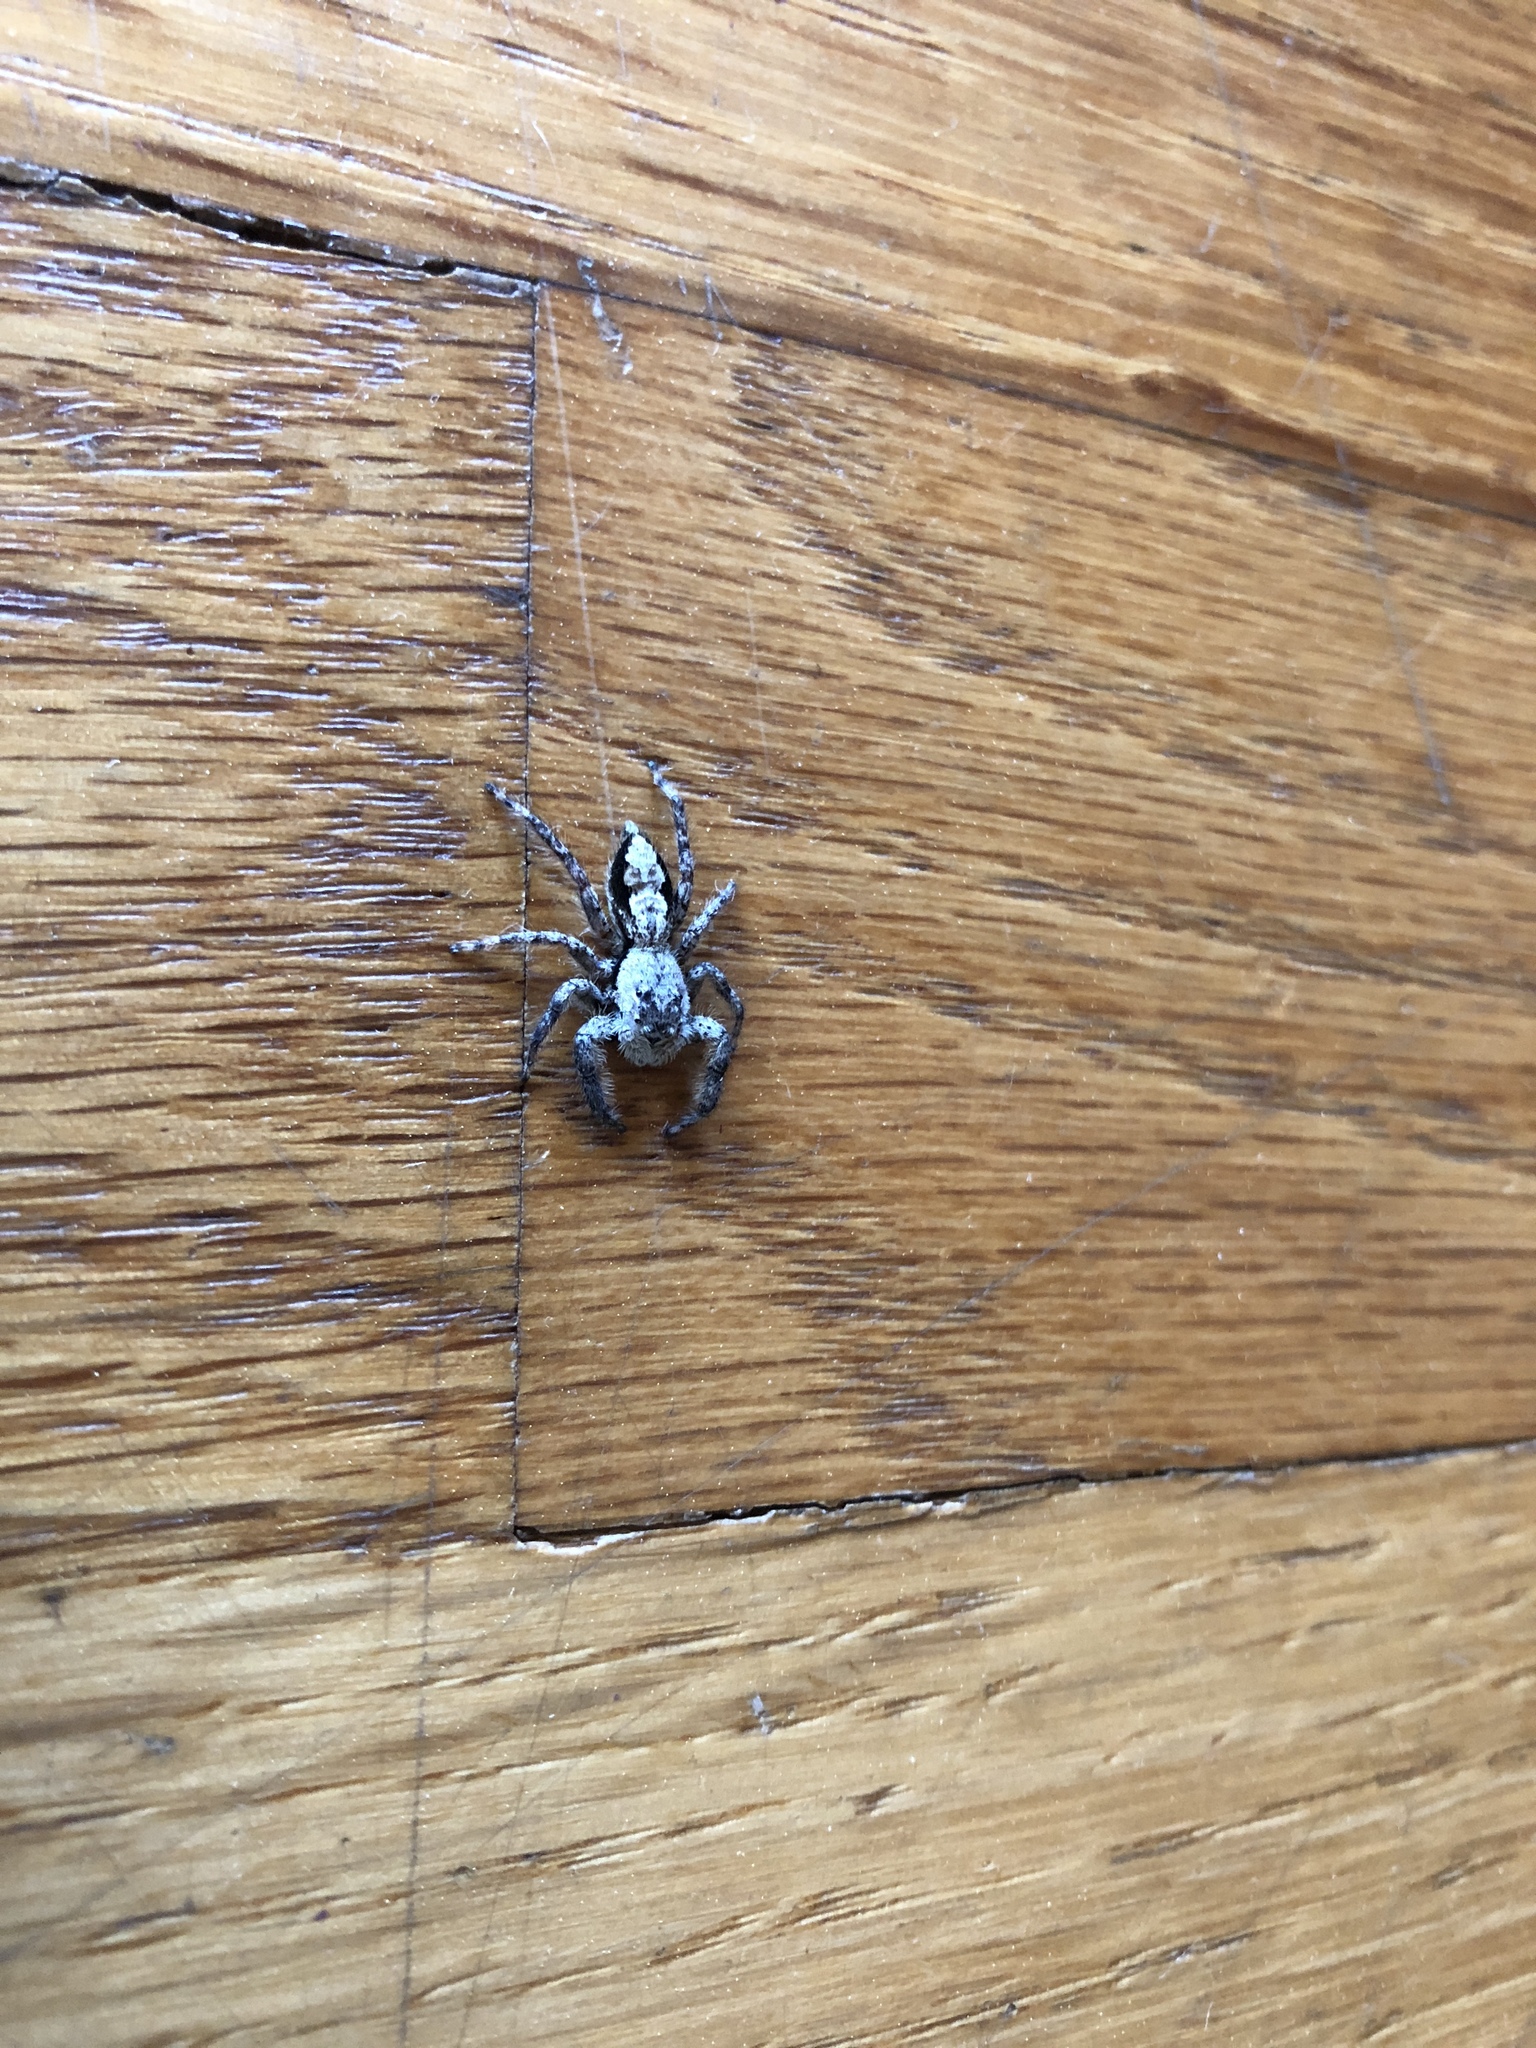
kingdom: Animalia
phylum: Arthropoda
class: Arachnida
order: Araneae
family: Salticidae
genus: Platycryptus
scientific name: Platycryptus undatus
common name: Tan jumping spider
